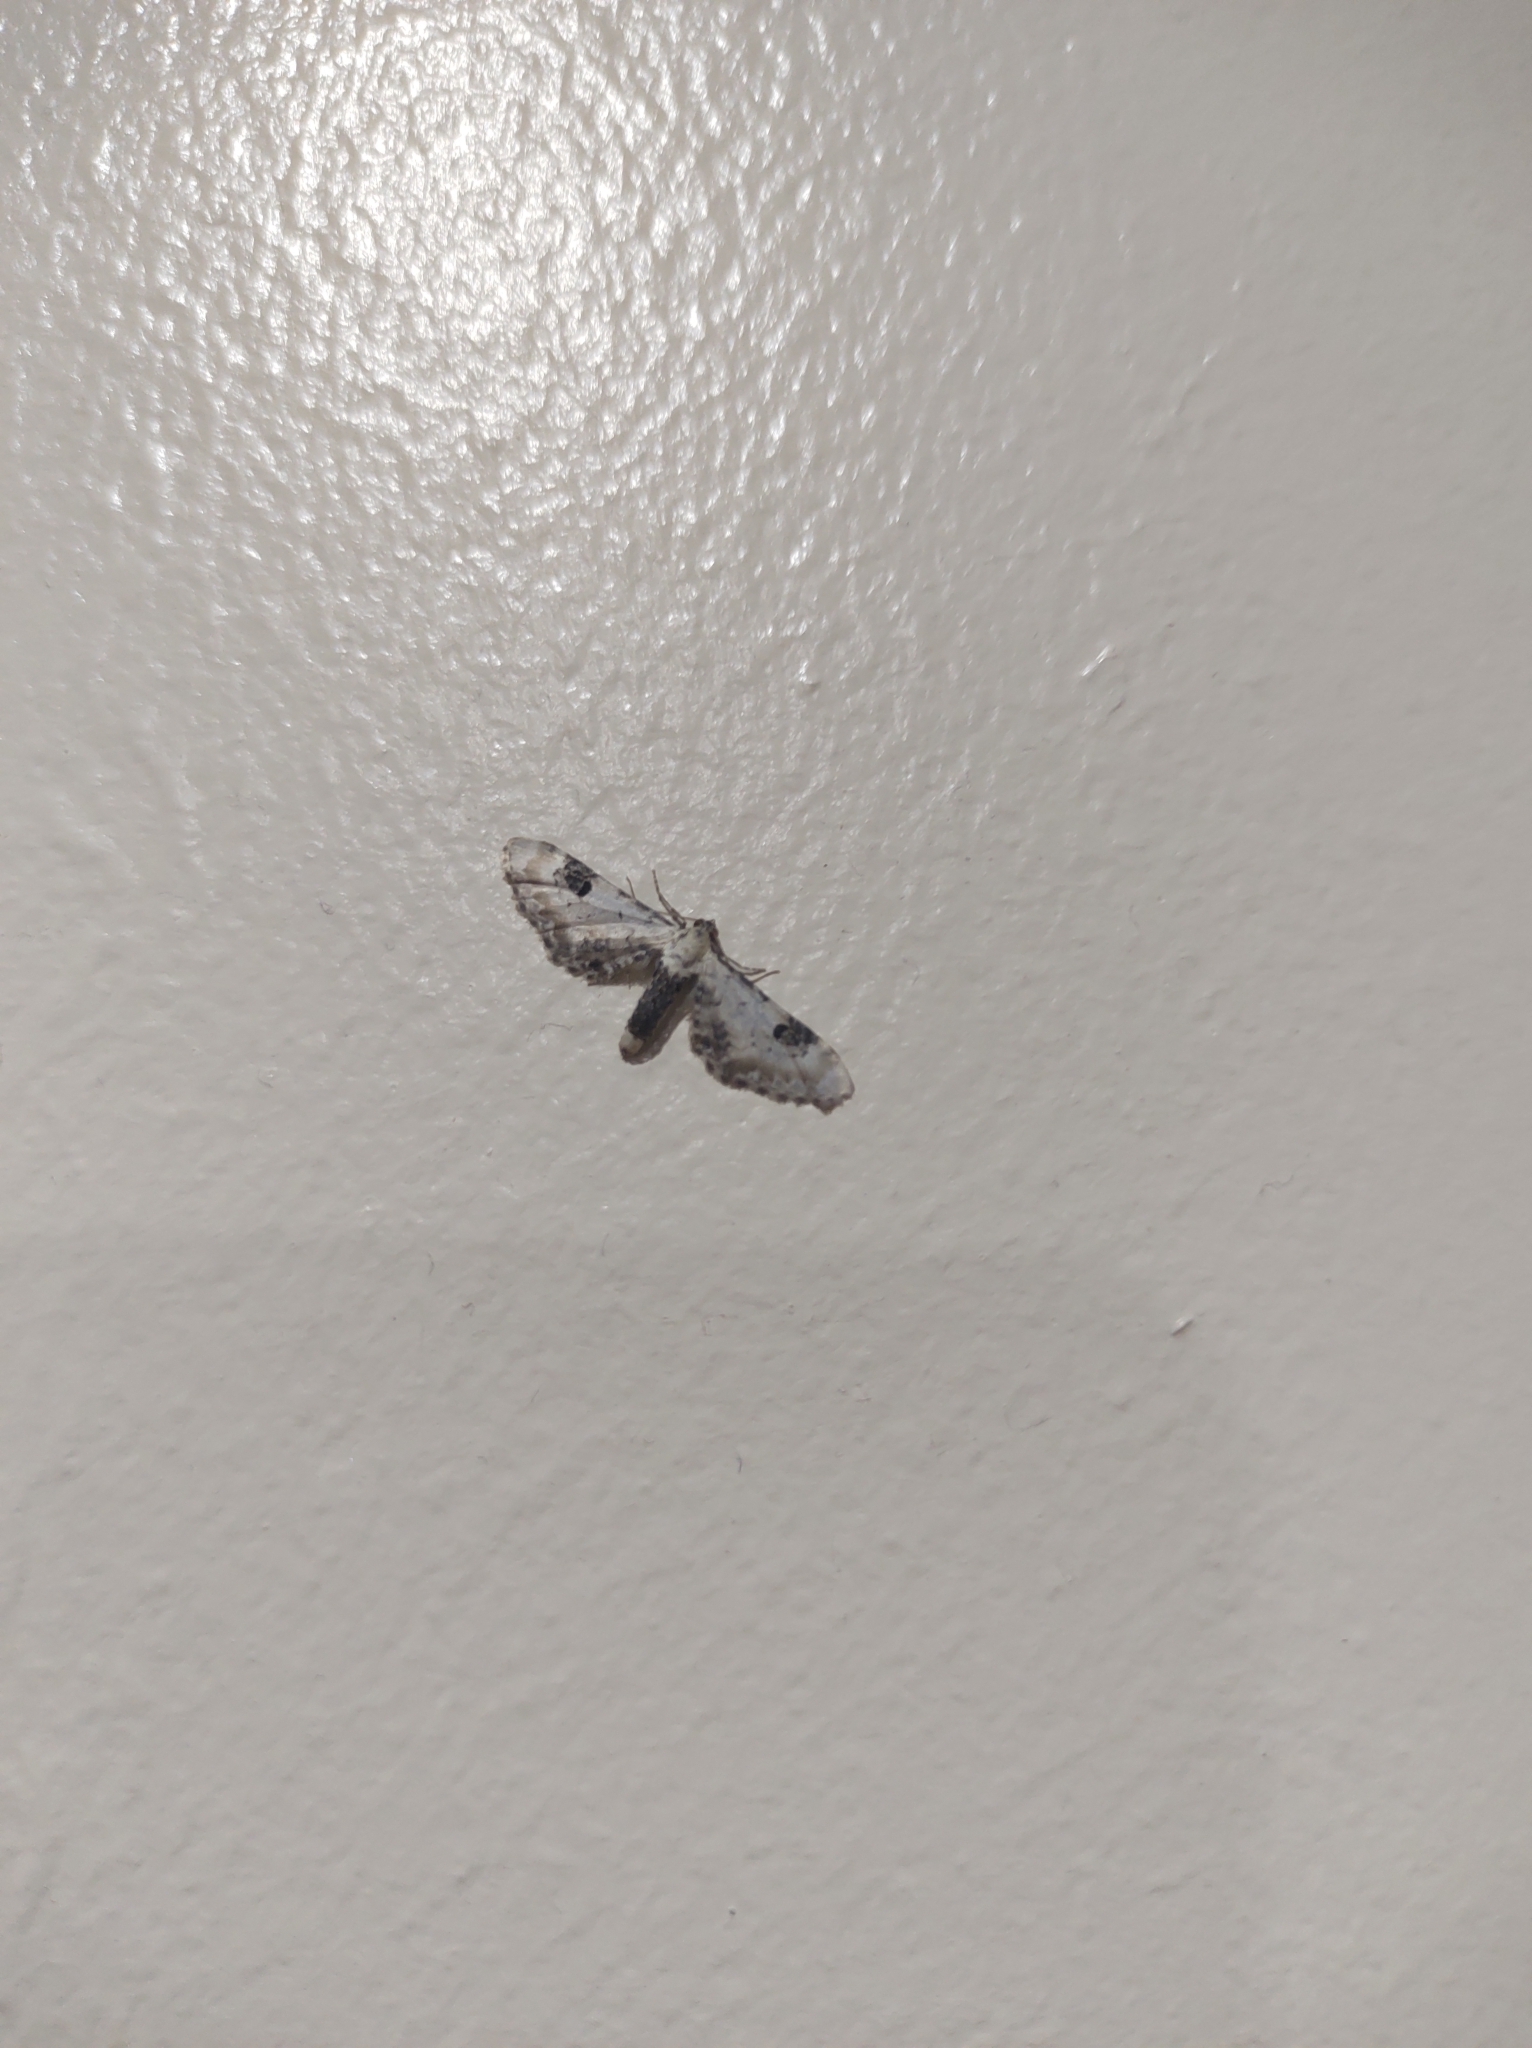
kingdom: Animalia
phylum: Arthropoda
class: Insecta
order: Lepidoptera
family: Geometridae
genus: Eupithecia
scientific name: Eupithecia centaureata
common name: Lime-speck pug
